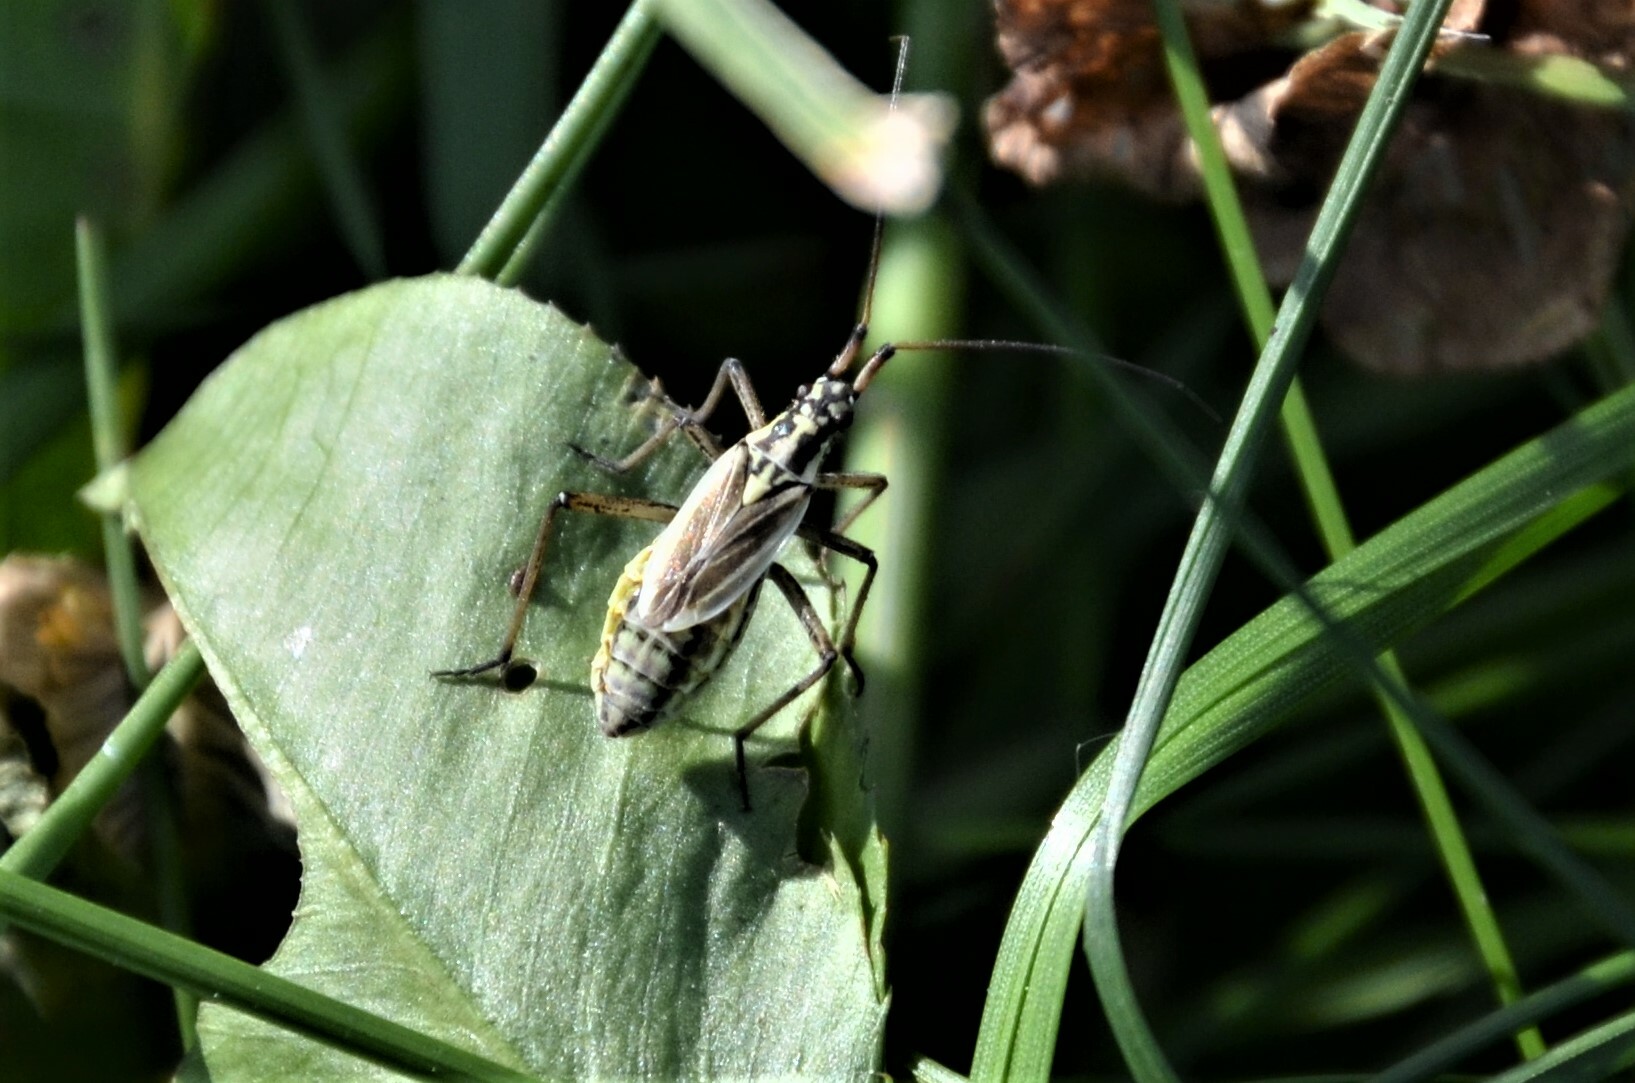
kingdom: Animalia
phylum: Arthropoda
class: Insecta
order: Hemiptera
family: Miridae
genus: Leptopterna
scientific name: Leptopterna dolabrata
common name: Meadow plant bug
